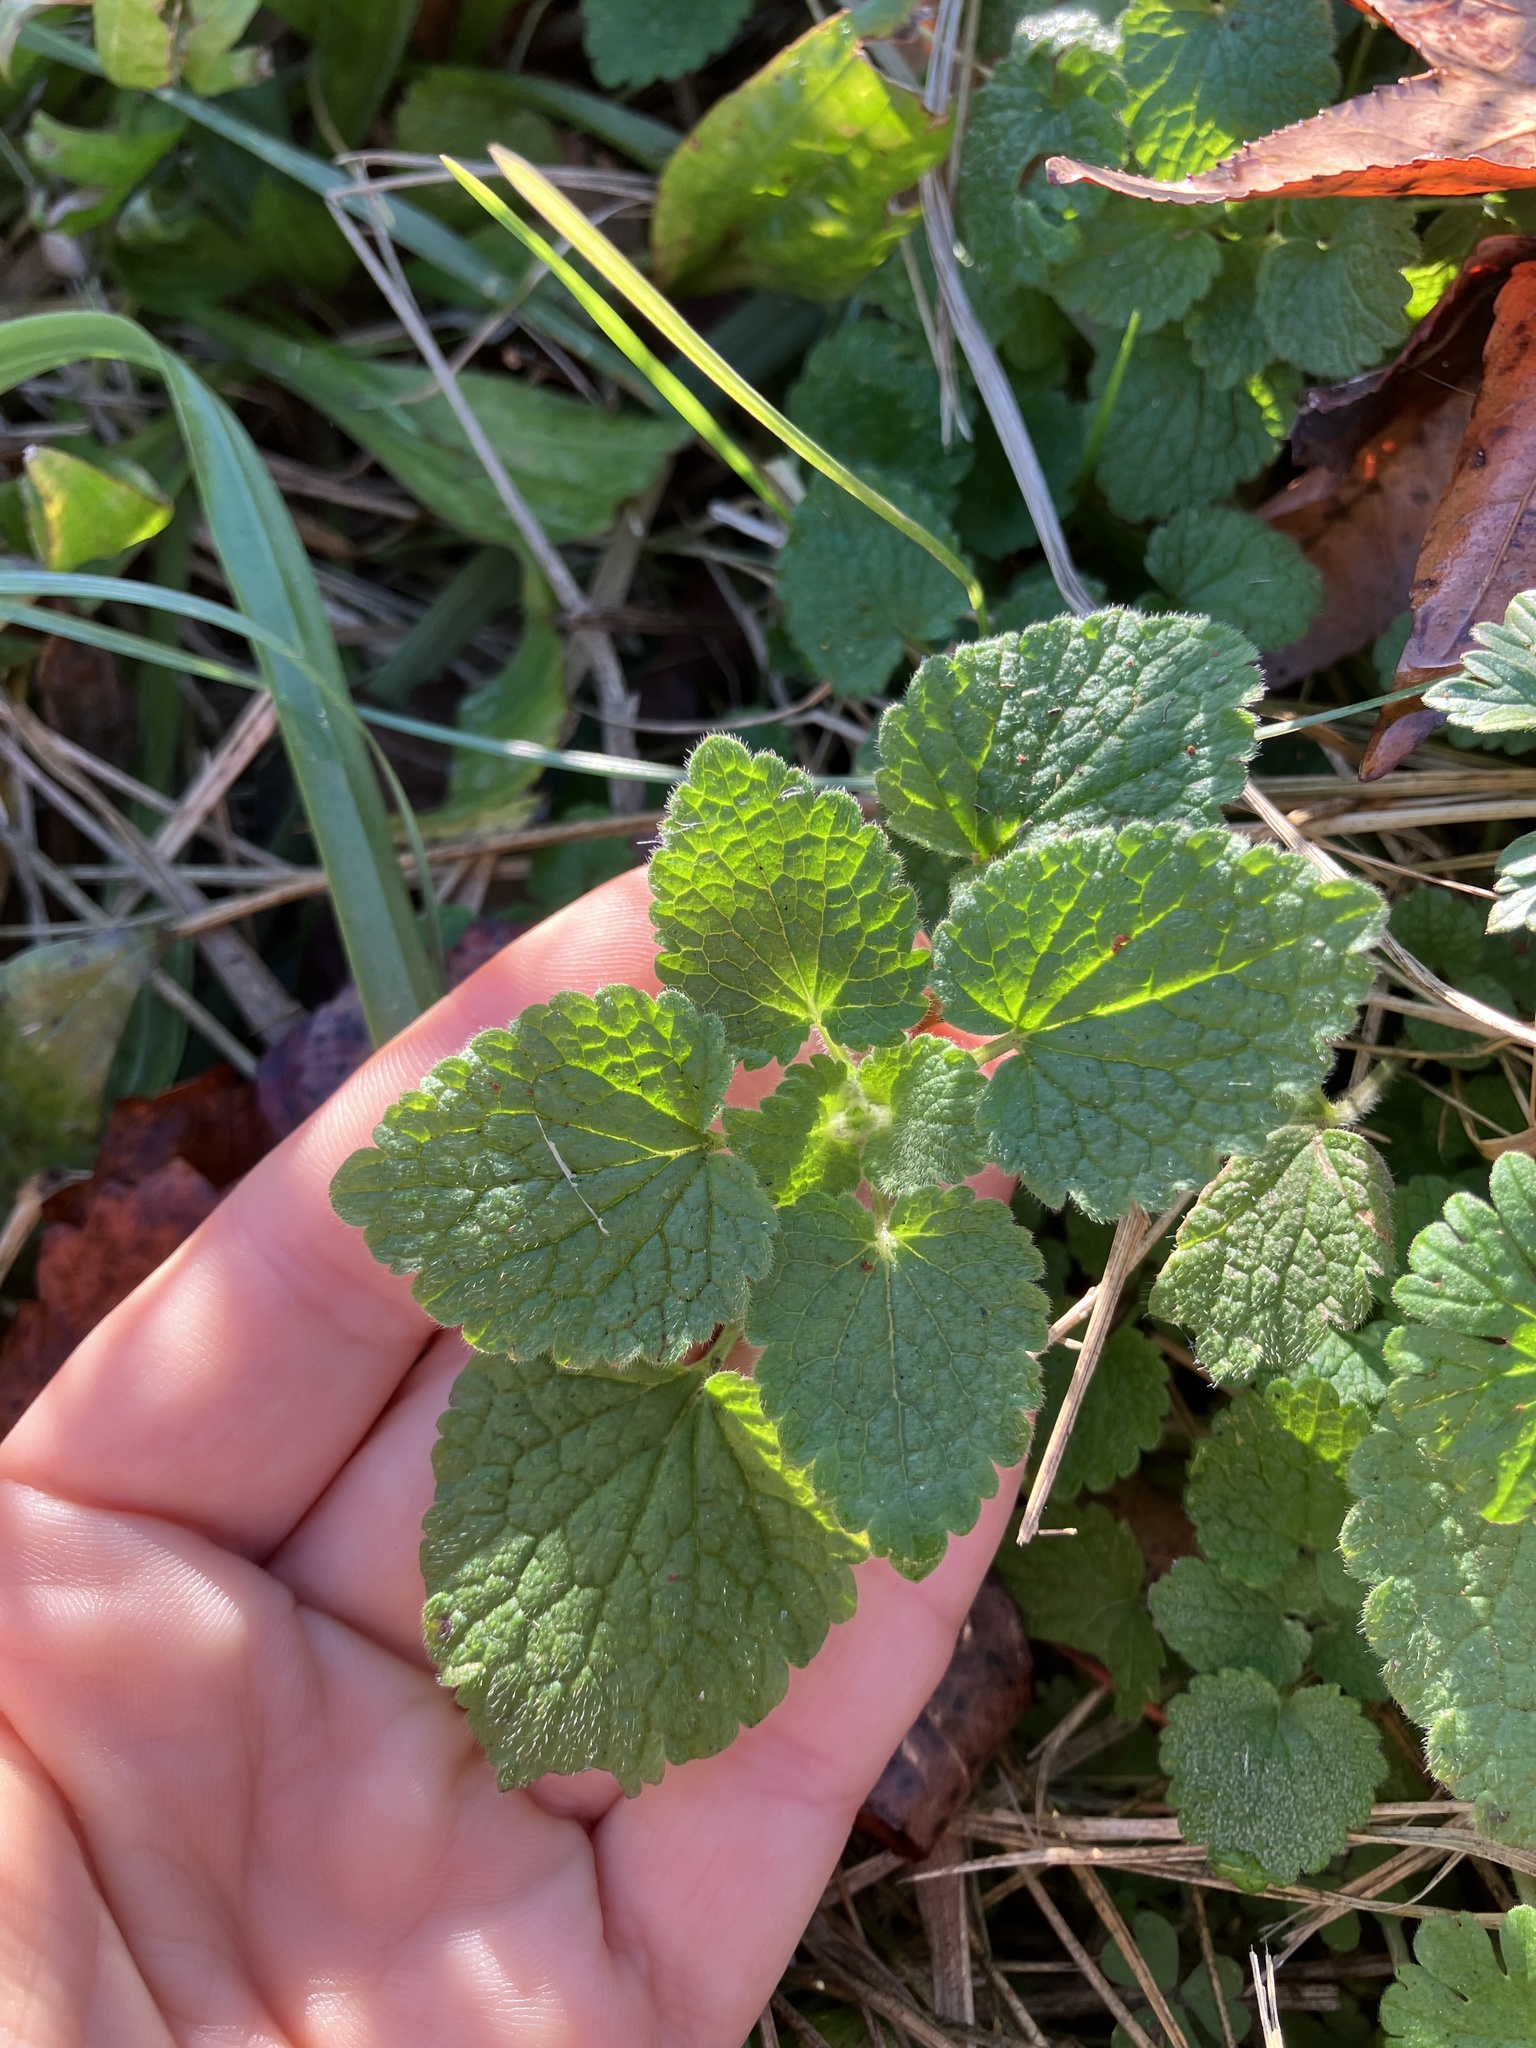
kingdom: Plantae
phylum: Tracheophyta
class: Magnoliopsida
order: Lamiales
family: Lamiaceae
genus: Lamium
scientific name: Lamium purpureum
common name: Red dead-nettle
